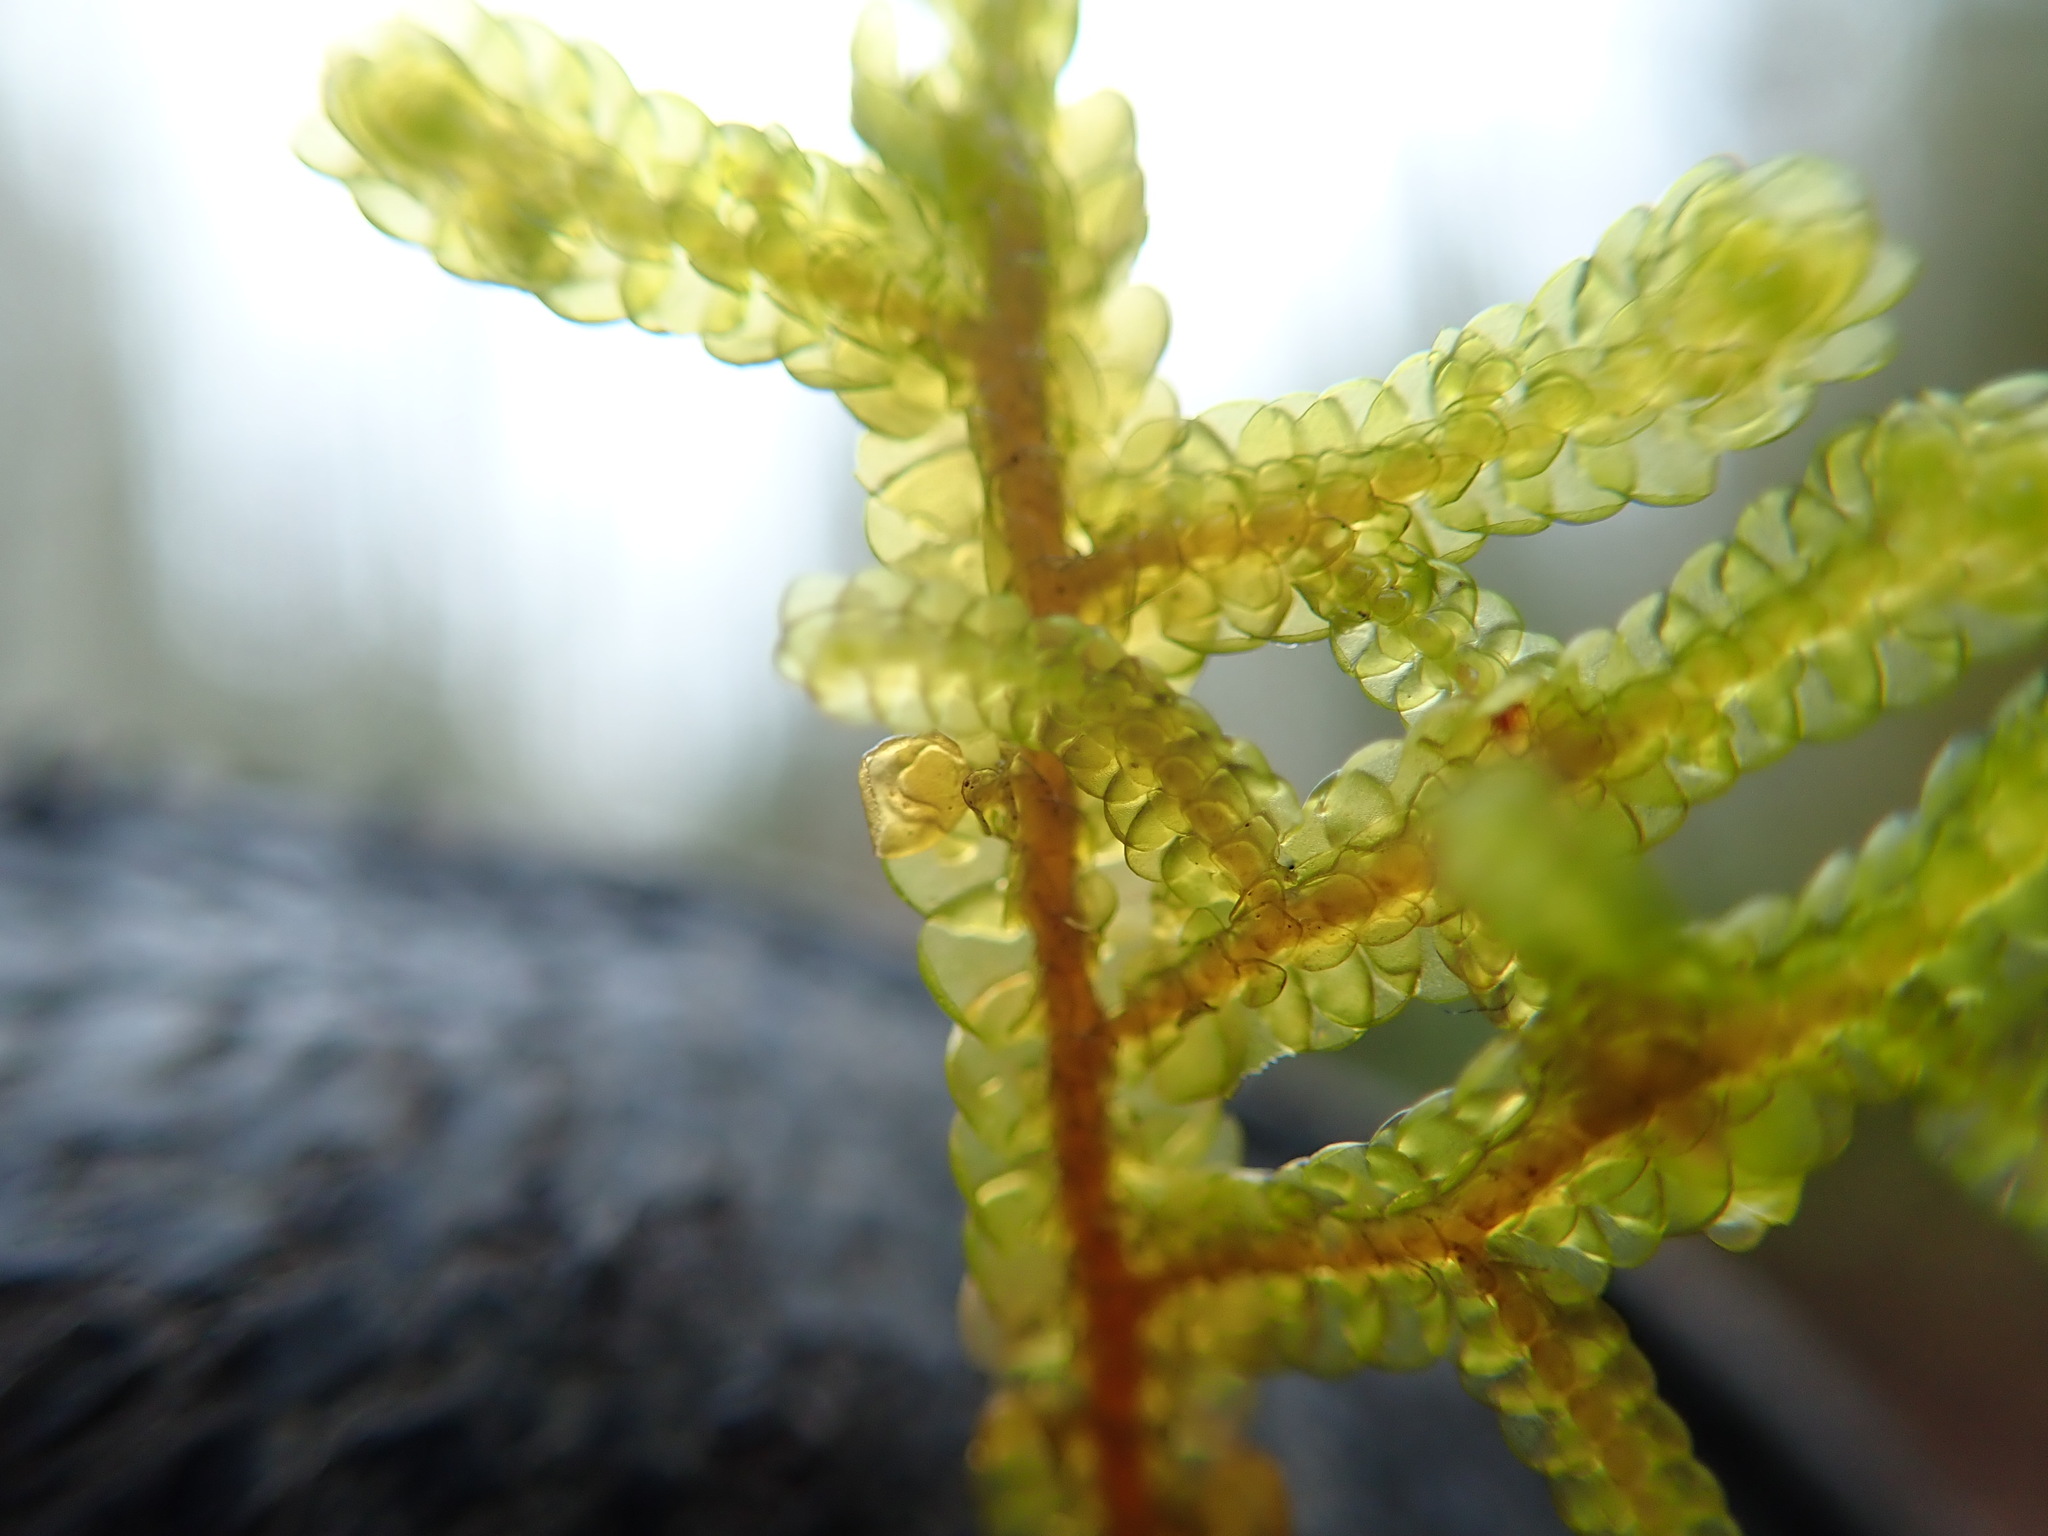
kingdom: Plantae
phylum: Marchantiophyta
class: Jungermanniopsida
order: Porellales
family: Porellaceae
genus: Porella
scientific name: Porella navicularis
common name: Tree ruffle liverwort
